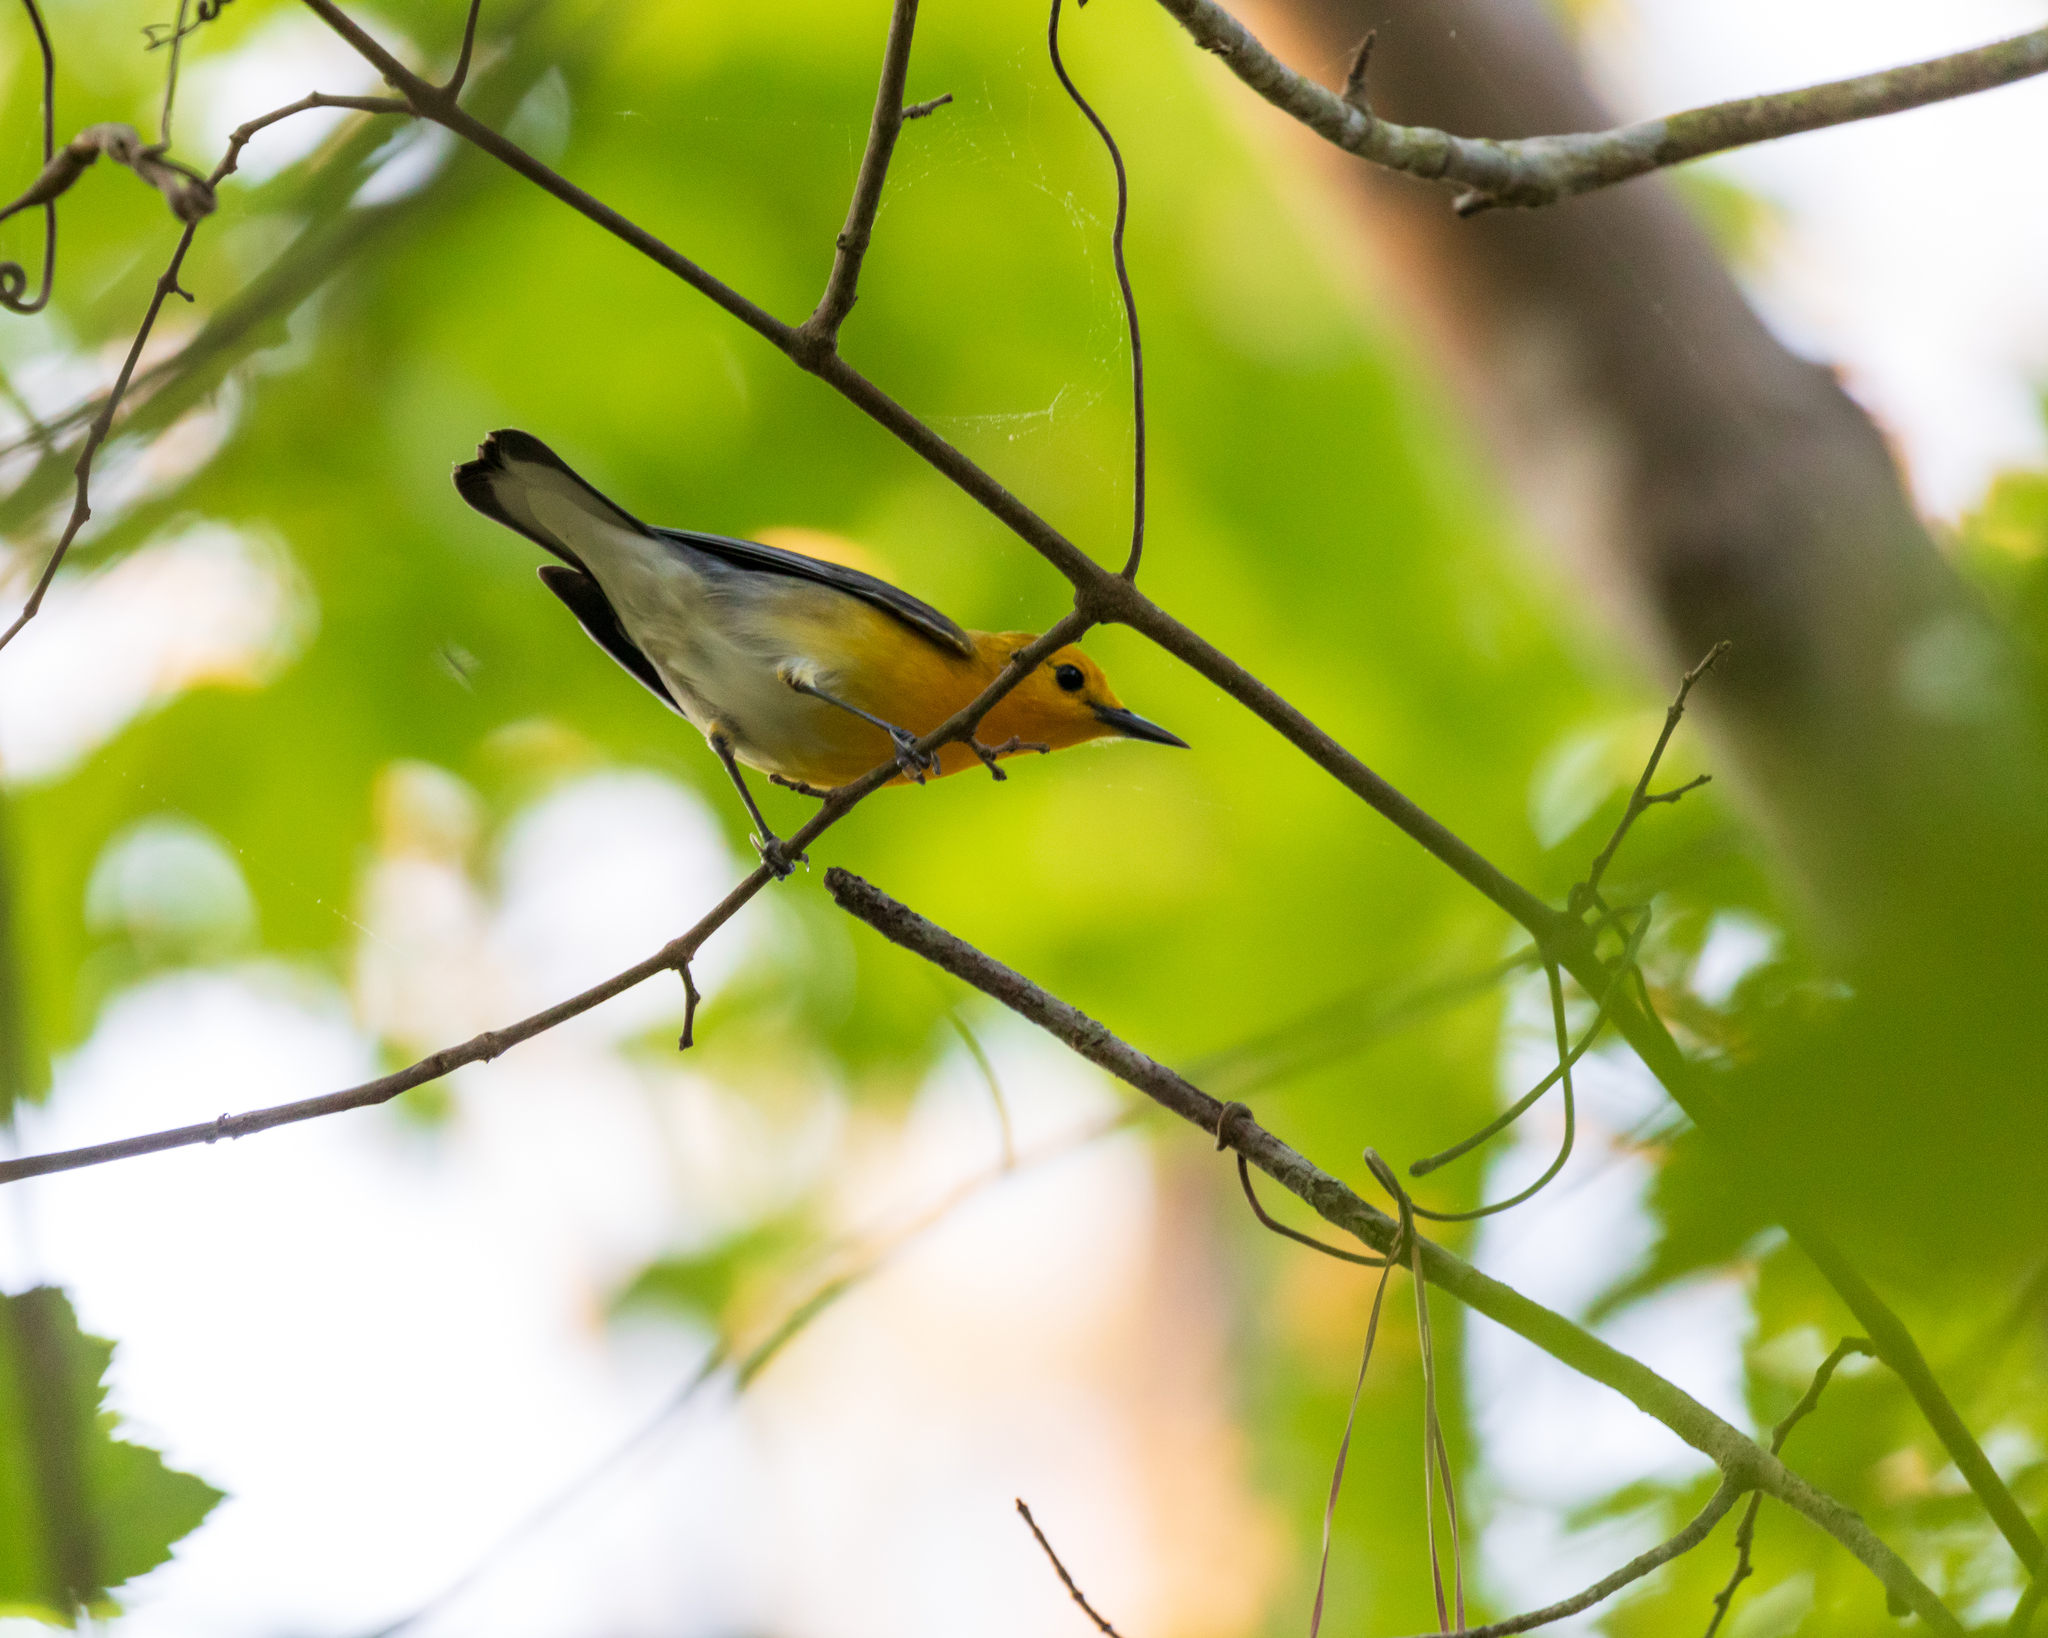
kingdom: Animalia
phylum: Chordata
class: Aves
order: Passeriformes
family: Parulidae
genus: Protonotaria
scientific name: Protonotaria citrea
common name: Prothonotary warbler
